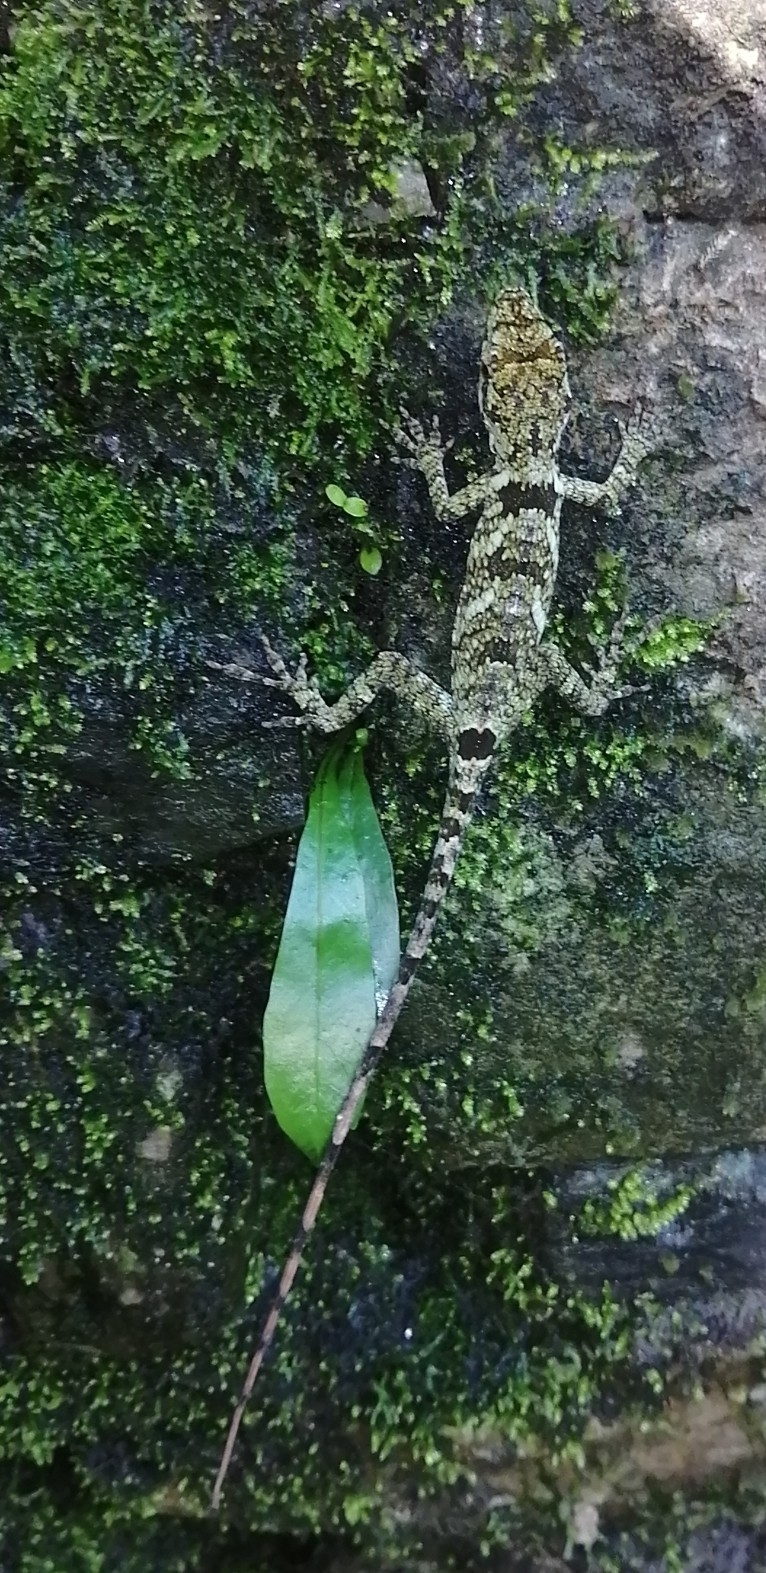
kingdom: Animalia
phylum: Chordata
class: Squamata
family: Dactyloidae
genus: Anolis
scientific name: Anolis petersii
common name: Peters' anole
